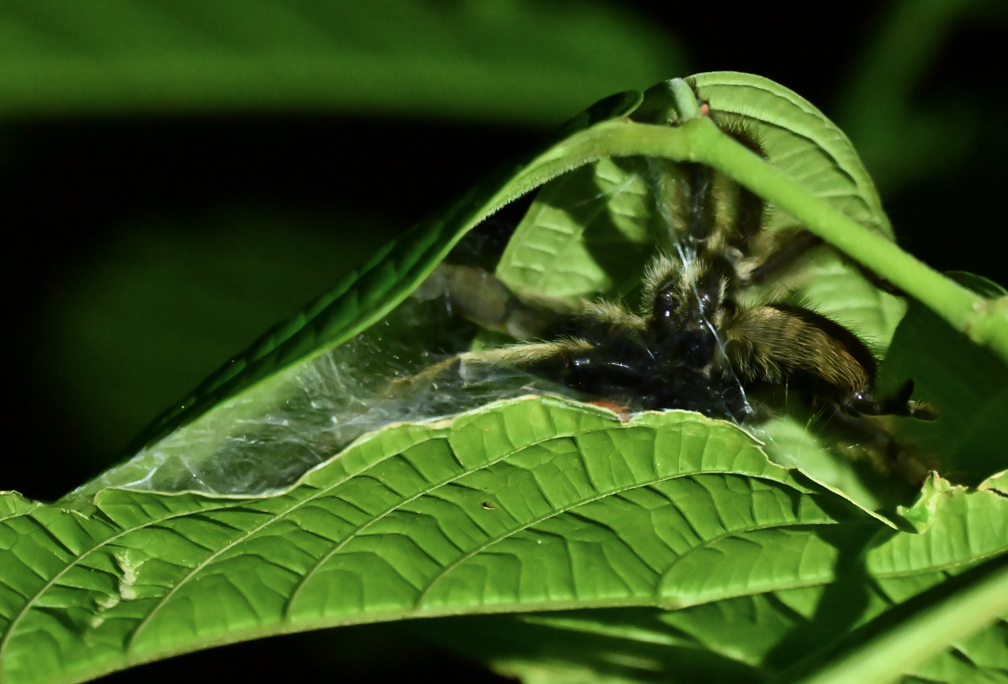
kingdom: Animalia
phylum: Arthropoda
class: Arachnida
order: Araneae
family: Theraphosidae
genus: Psalmopoeus
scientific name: Psalmopoeus cambridgei
